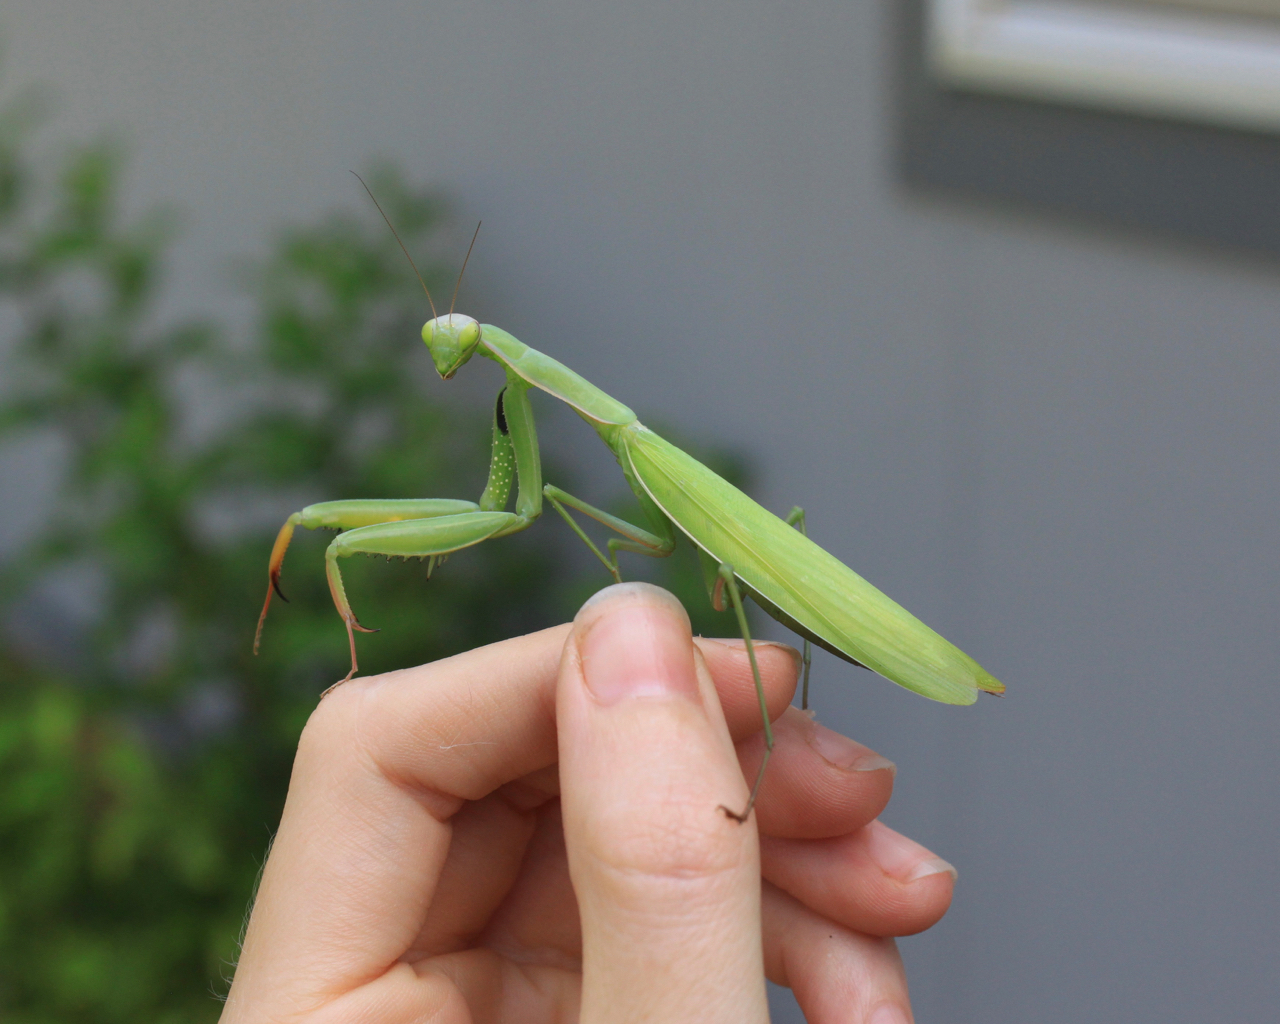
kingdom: Animalia
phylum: Arthropoda
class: Insecta
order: Mantodea
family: Mantidae
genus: Mantis
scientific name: Mantis religiosa
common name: Praying mantis
